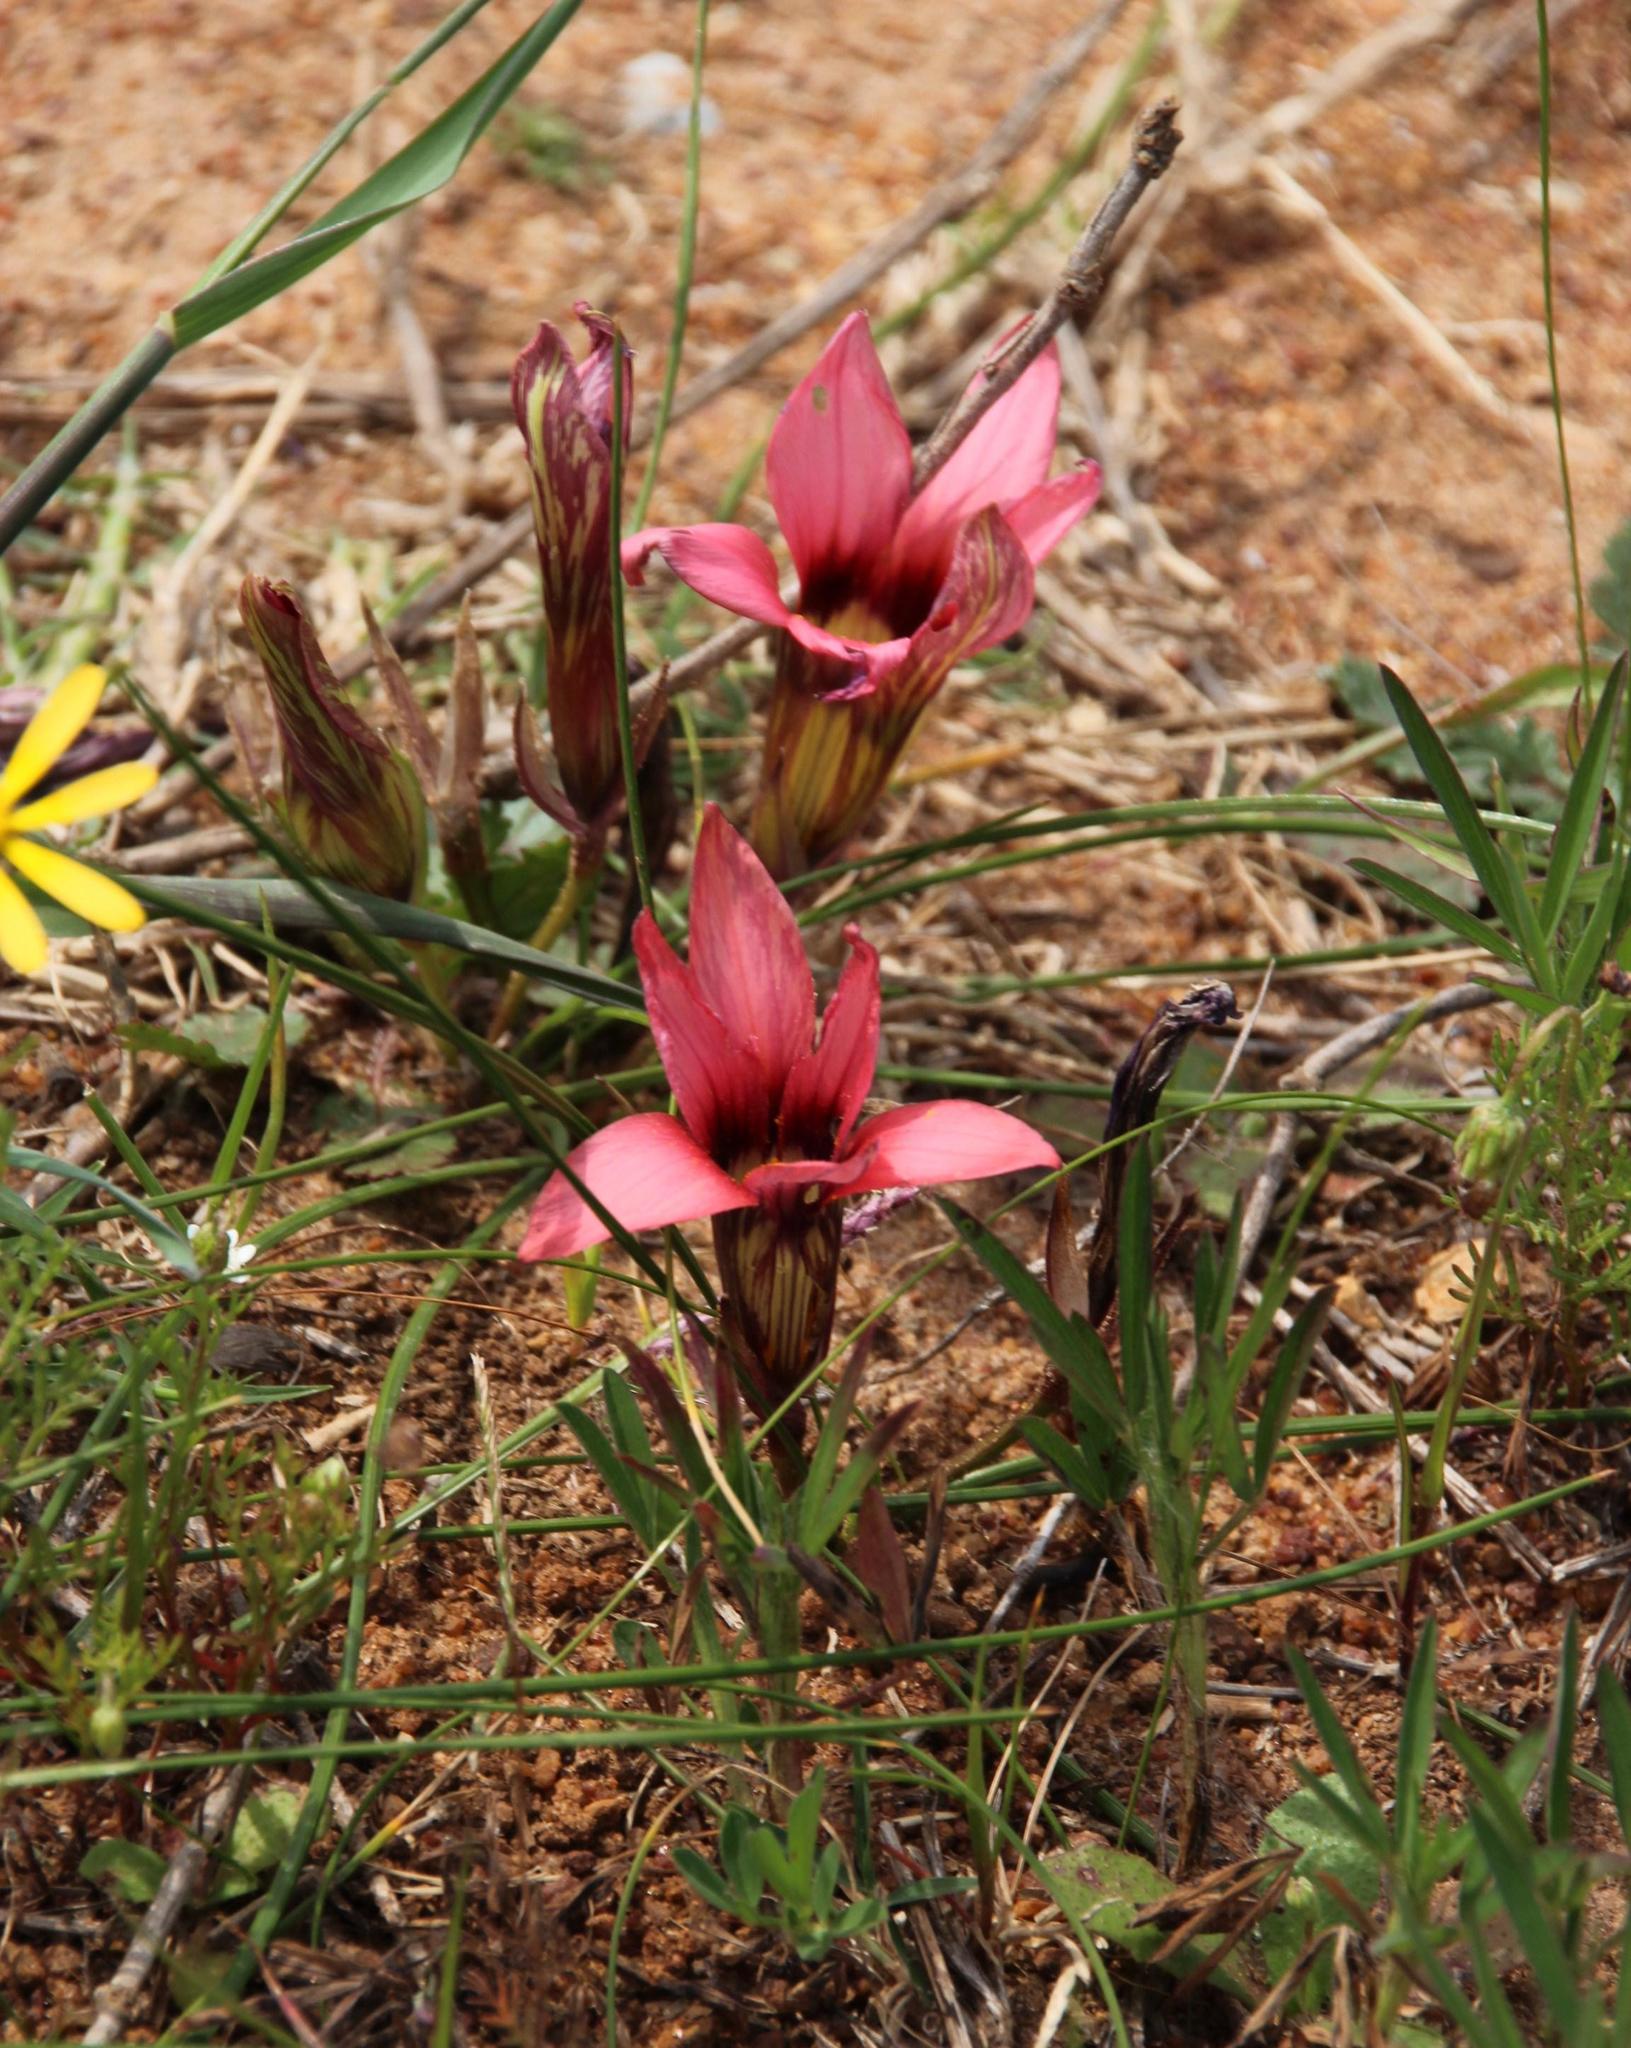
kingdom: Plantae
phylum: Tracheophyta
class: Liliopsida
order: Asparagales
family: Iridaceae
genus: Romulea
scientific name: Romulea hirsuta
